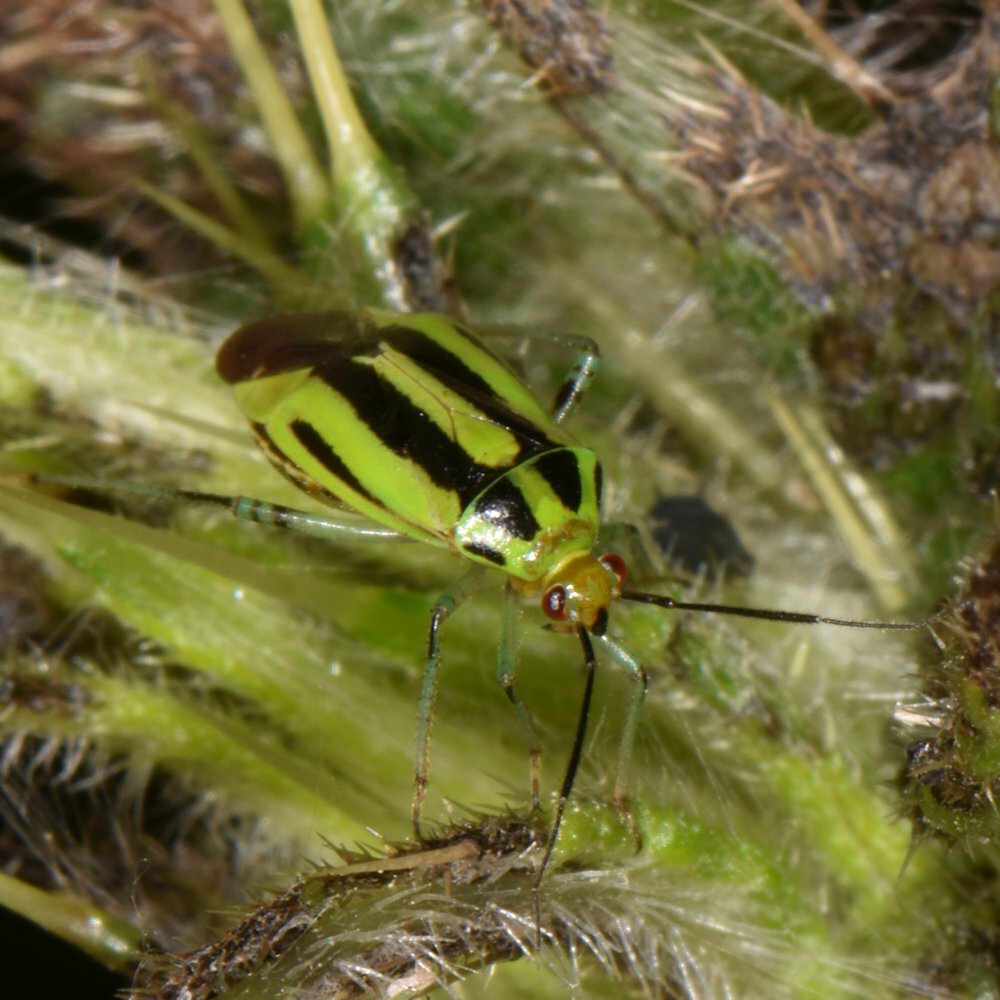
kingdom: Animalia
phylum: Arthropoda
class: Insecta
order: Hemiptera
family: Miridae
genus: Poecilocapsus
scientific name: Poecilocapsus lineatus
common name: Four-lined plant bug
